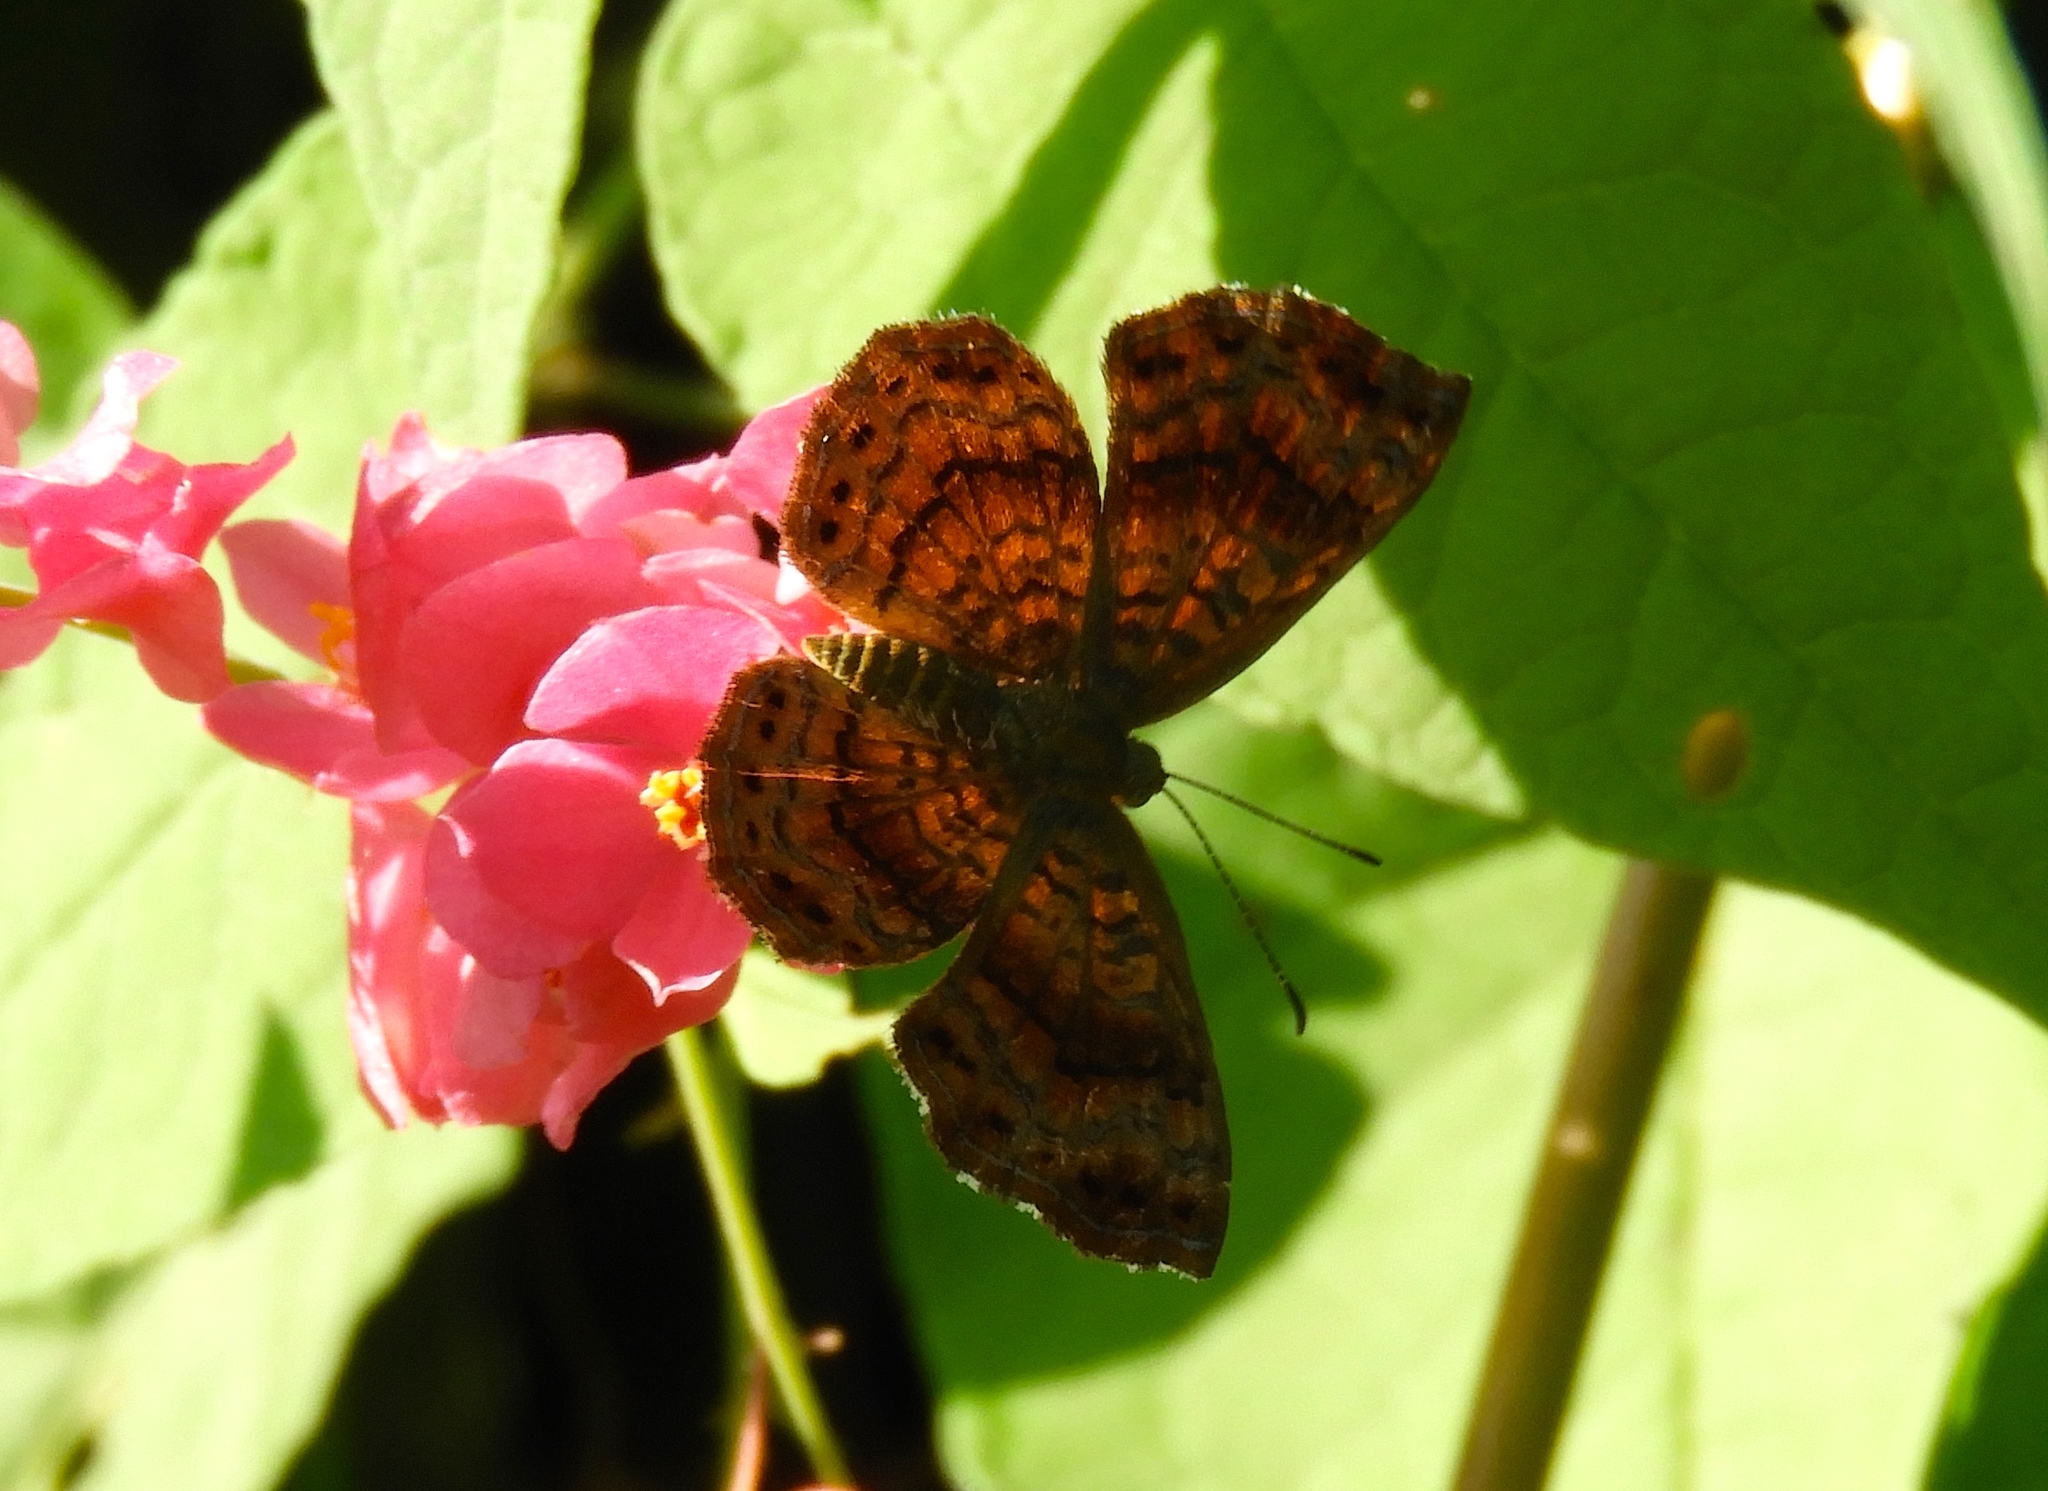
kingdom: Animalia
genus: Calephelis
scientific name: Calephelis
